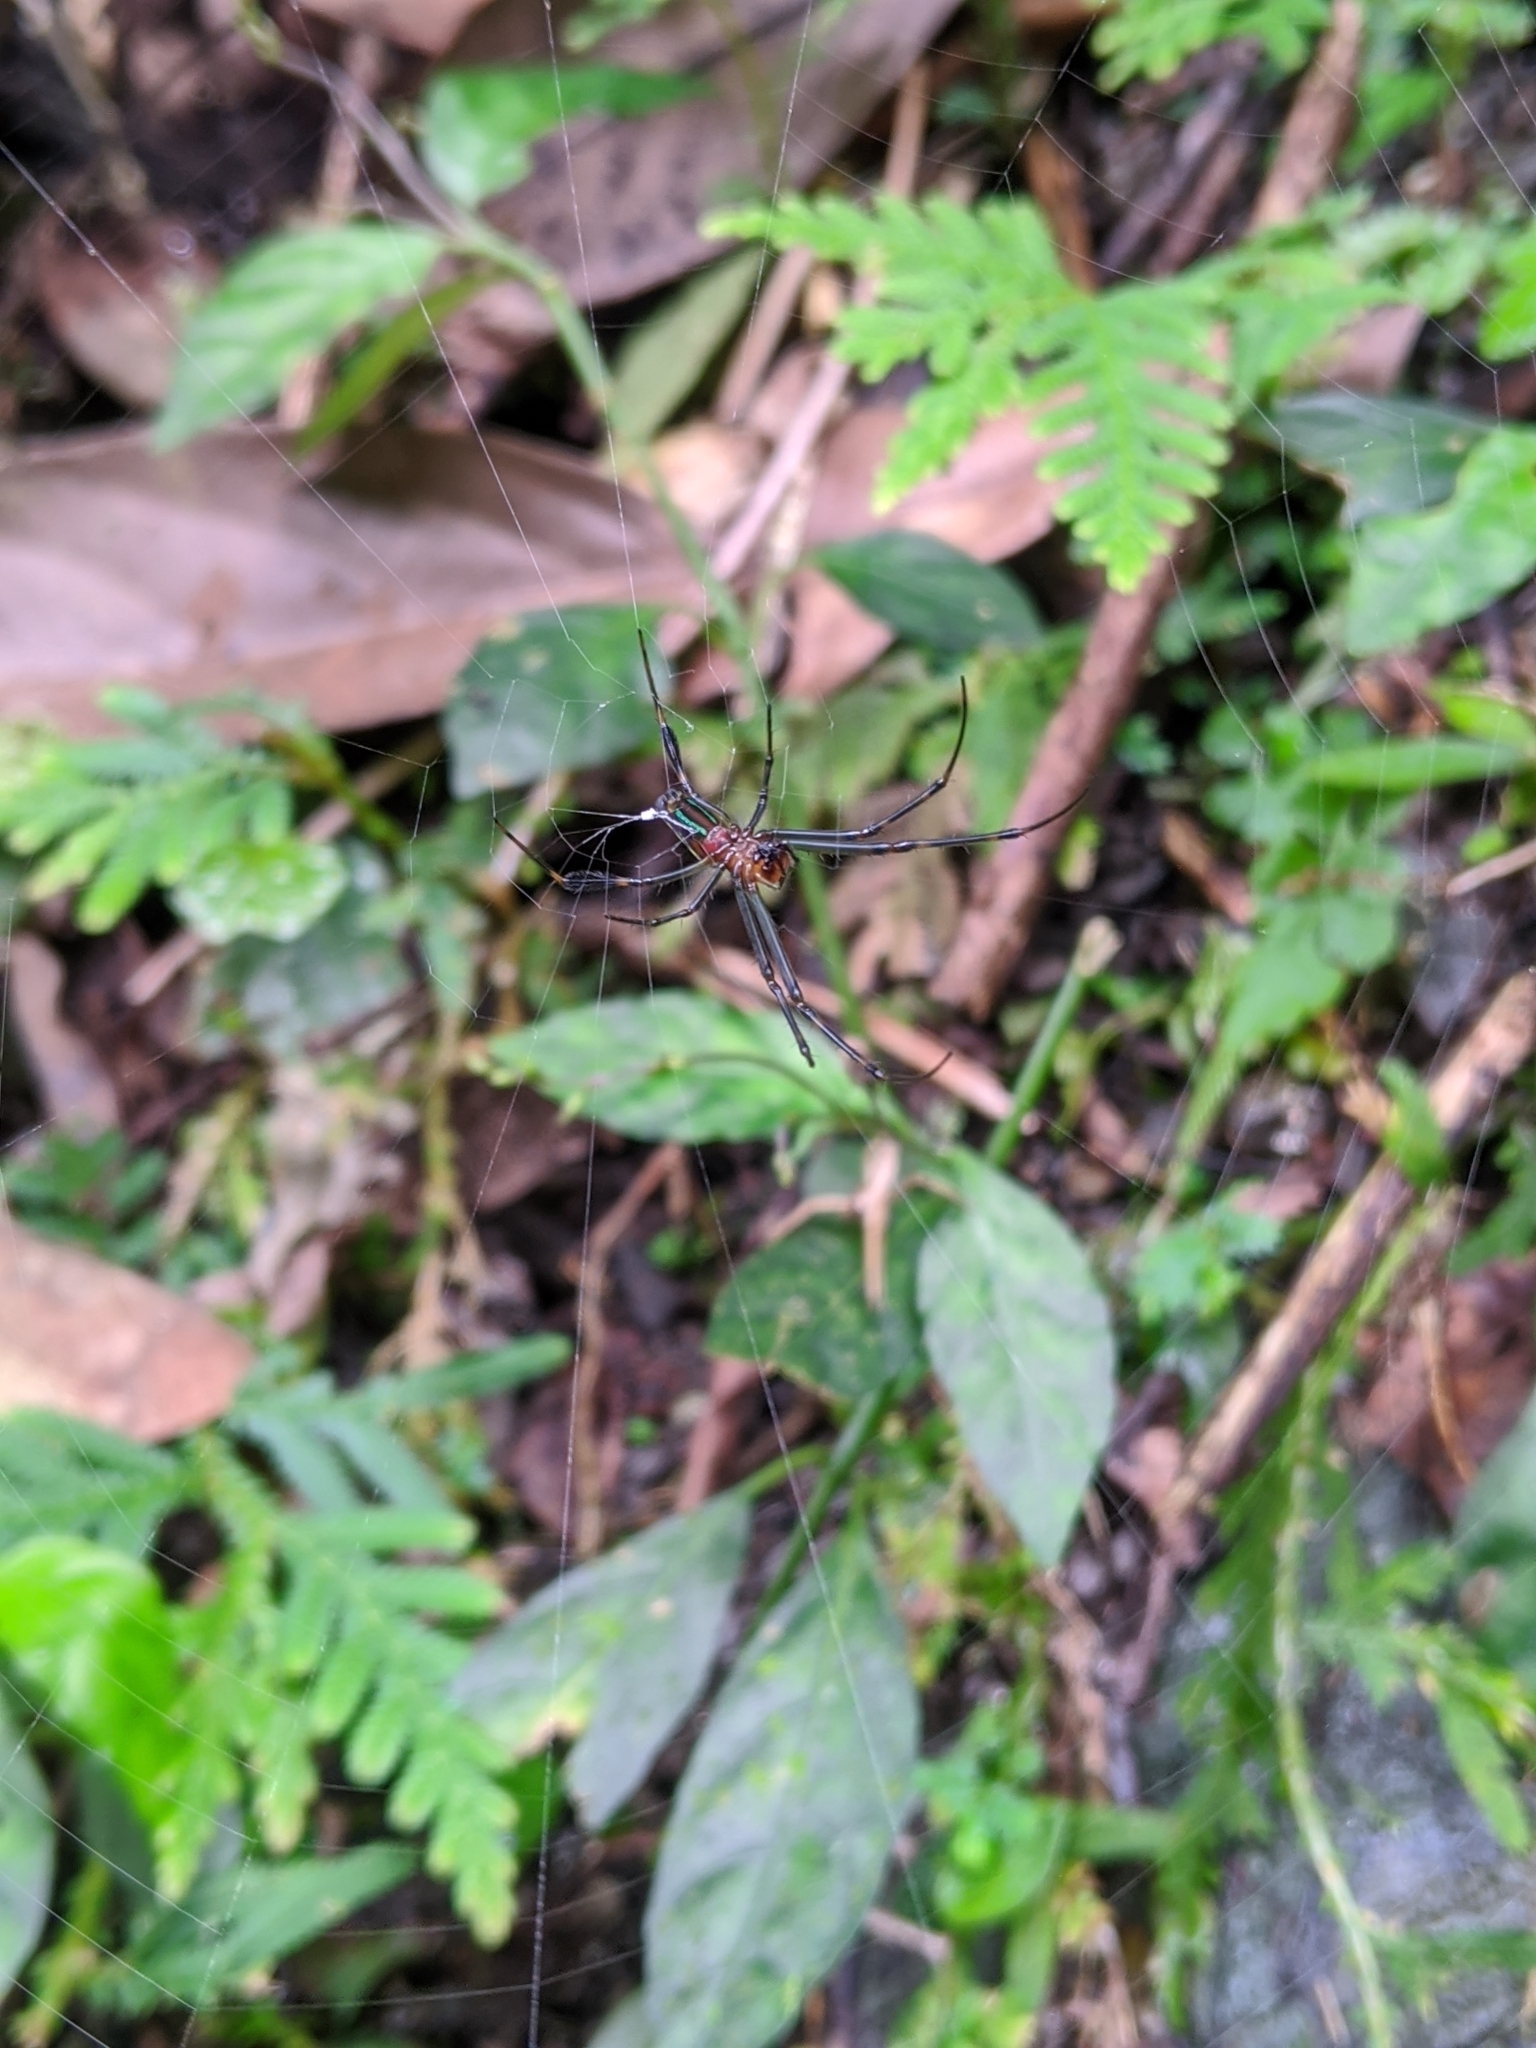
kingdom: Animalia
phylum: Arthropoda
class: Arachnida
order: Araneae
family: Tetragnathidae
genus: Leucauge
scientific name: Leucauge tessellata
